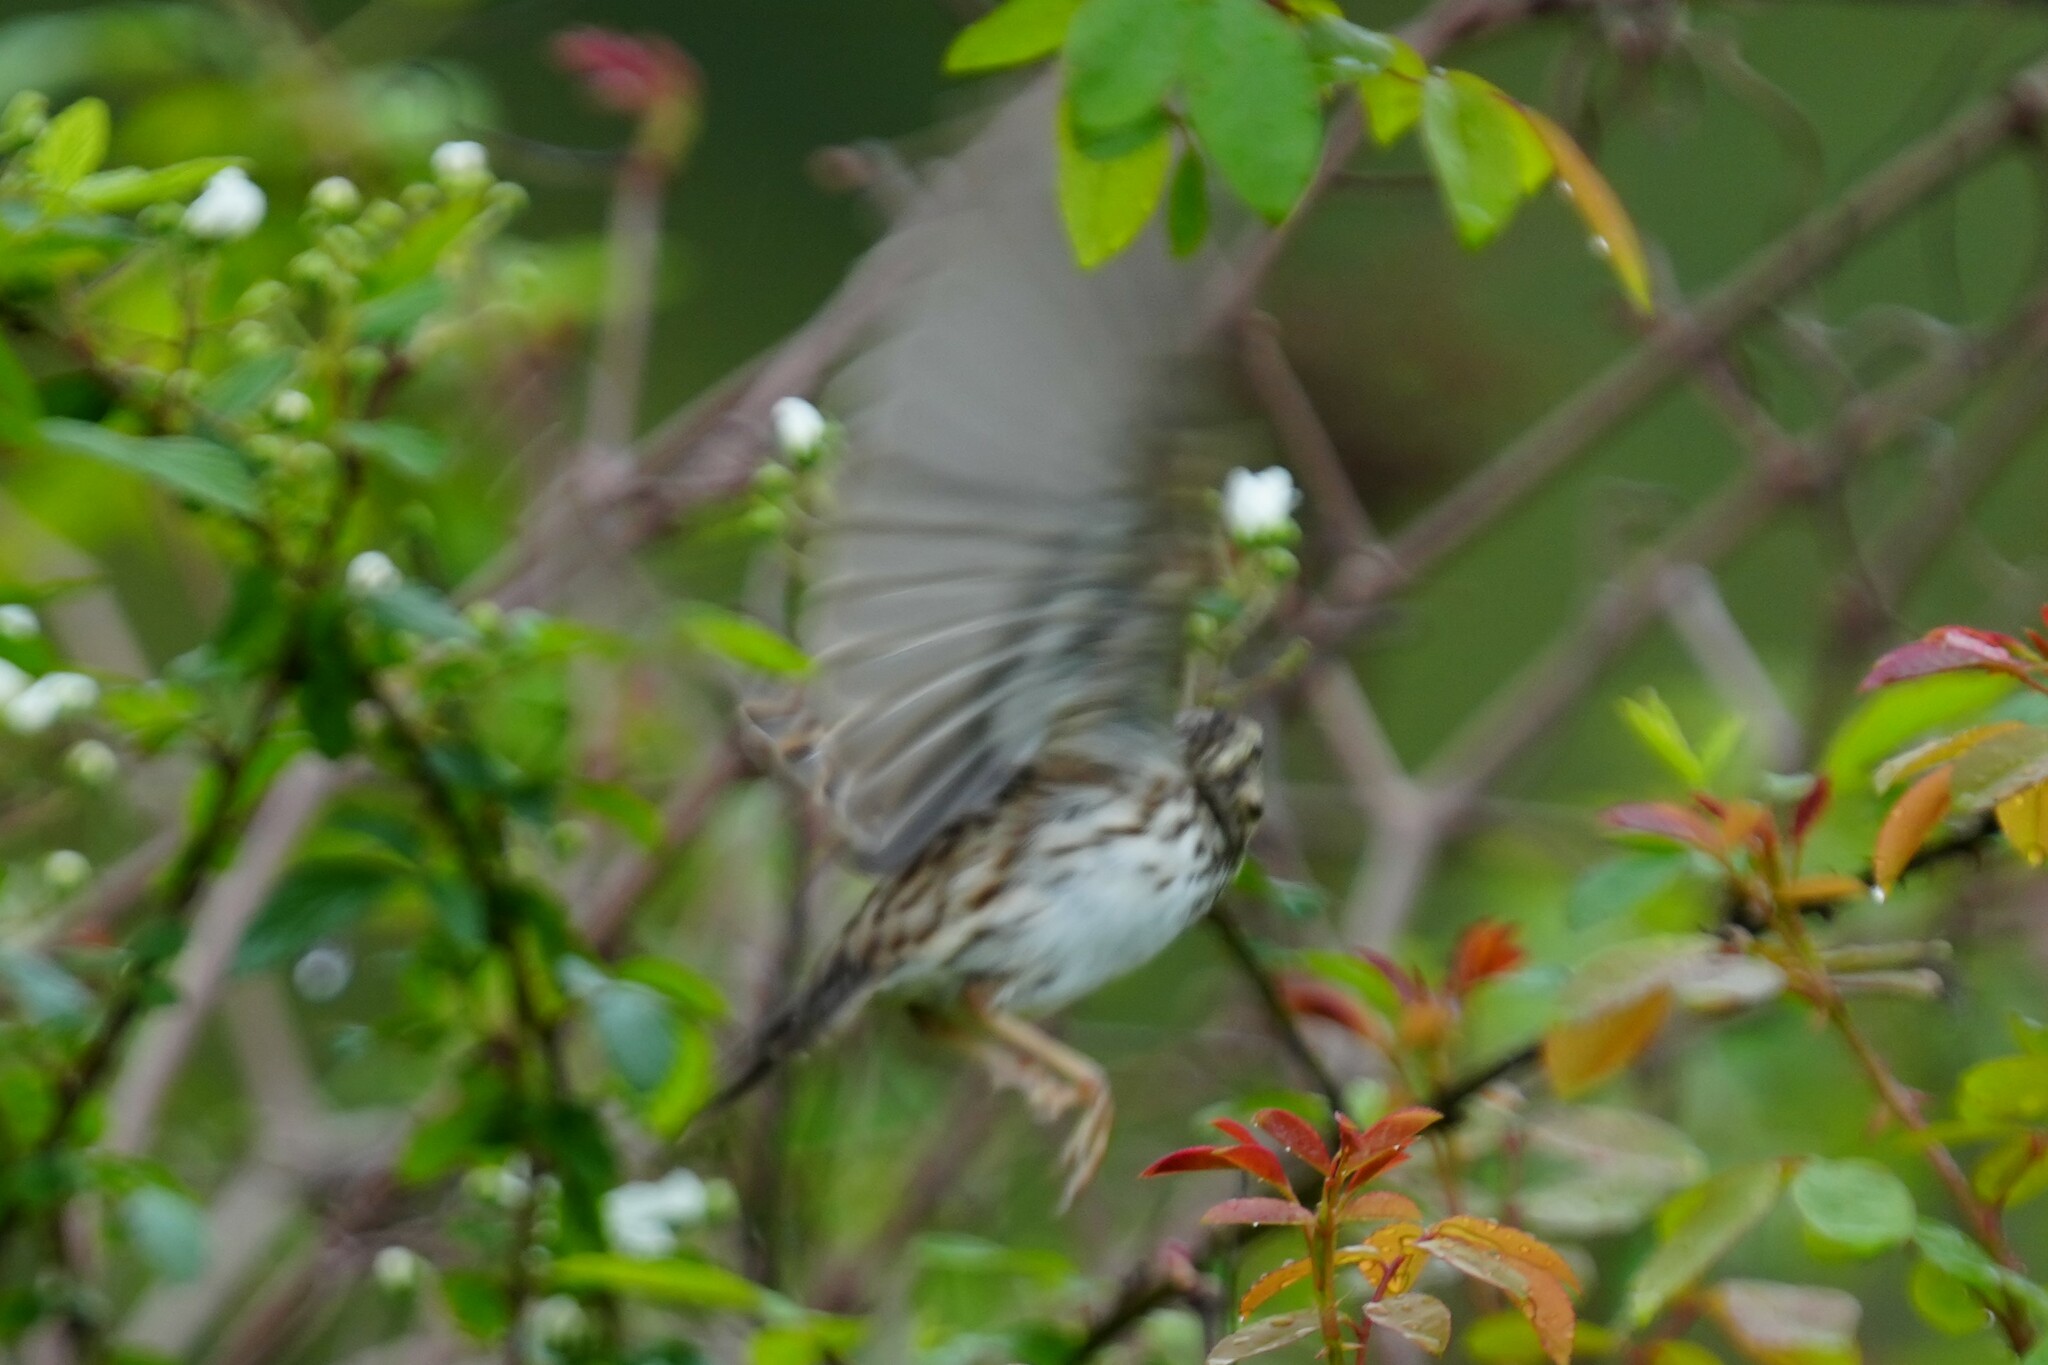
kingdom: Animalia
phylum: Chordata
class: Aves
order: Passeriformes
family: Passerellidae
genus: Passerculus
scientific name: Passerculus sandwichensis
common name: Savannah sparrow
